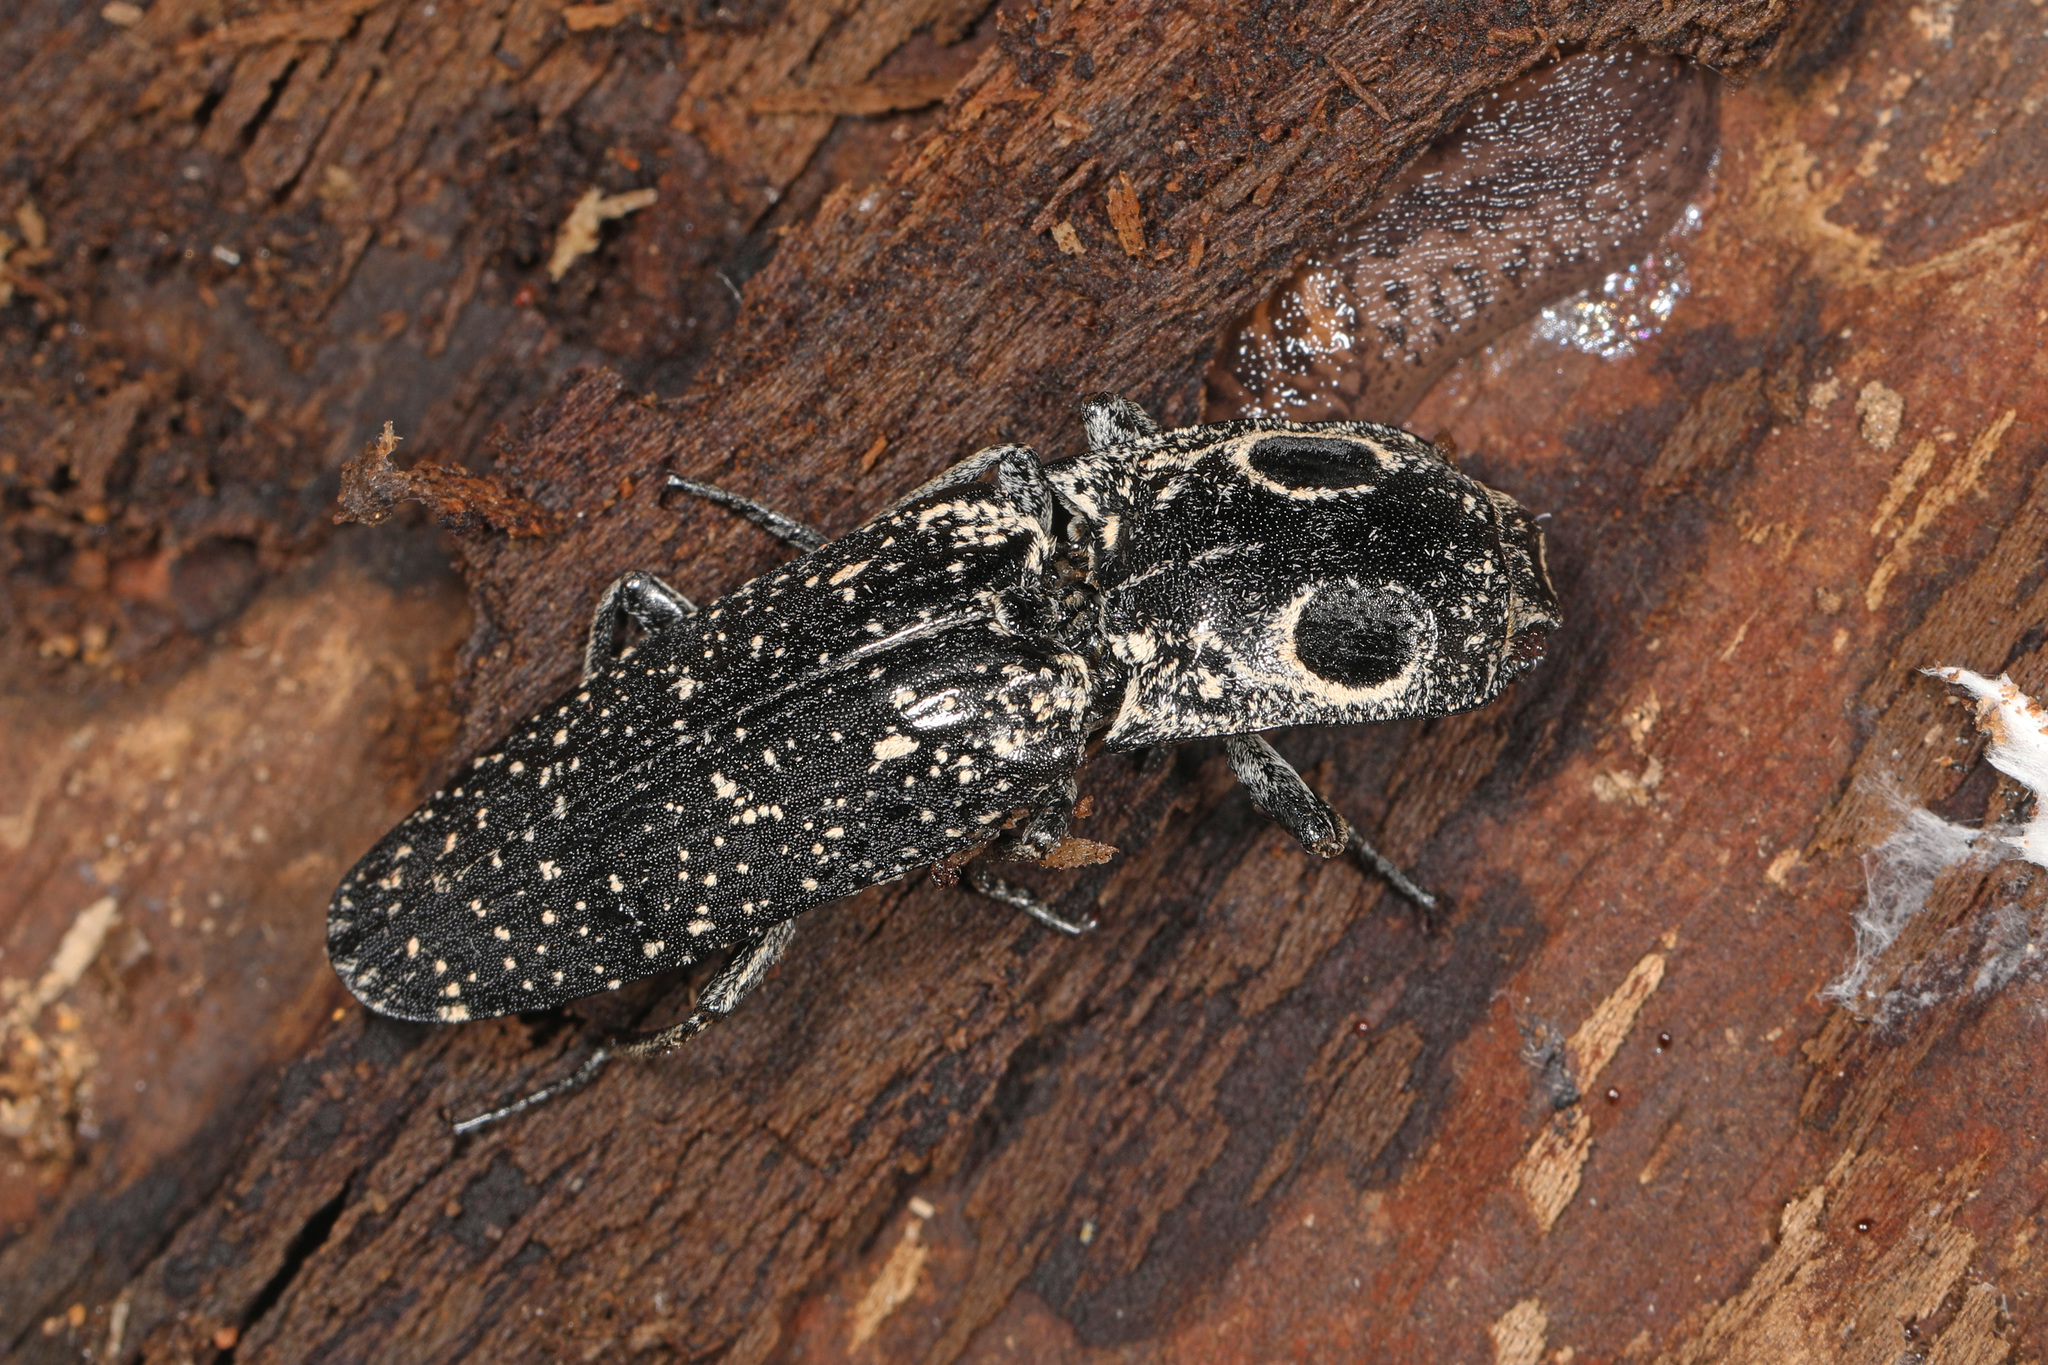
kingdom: Animalia
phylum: Arthropoda
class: Insecta
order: Coleoptera
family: Elateridae
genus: Alaus
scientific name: Alaus oculatus
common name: Eastern eyed click beetle
